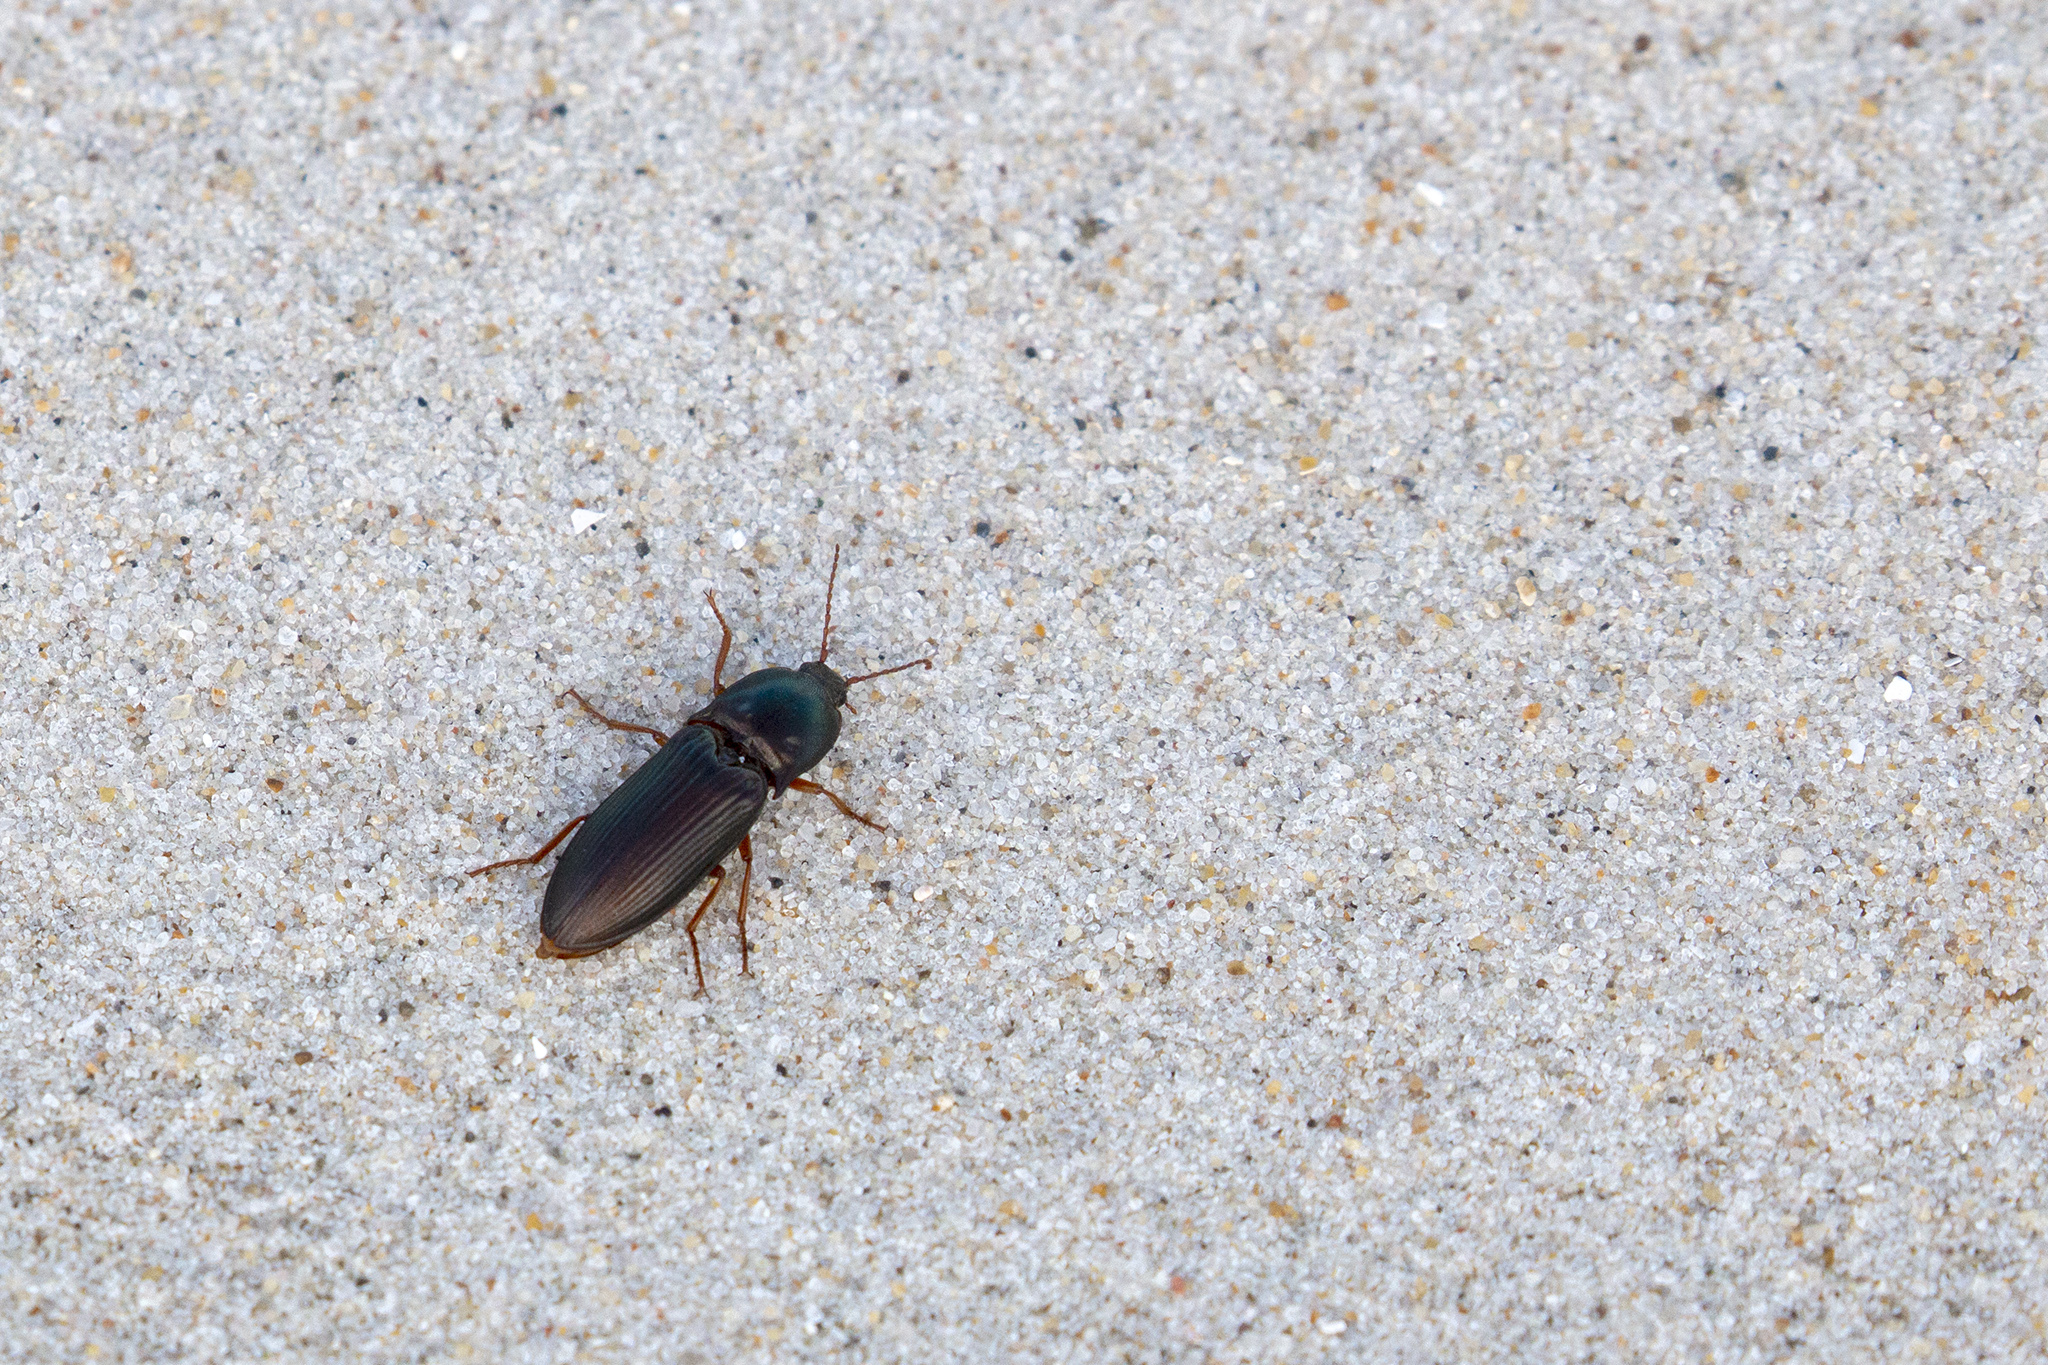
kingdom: Animalia
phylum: Arthropoda
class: Insecta
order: Coleoptera
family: Elateridae
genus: Selatosomus
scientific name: Selatosomus aeneus
